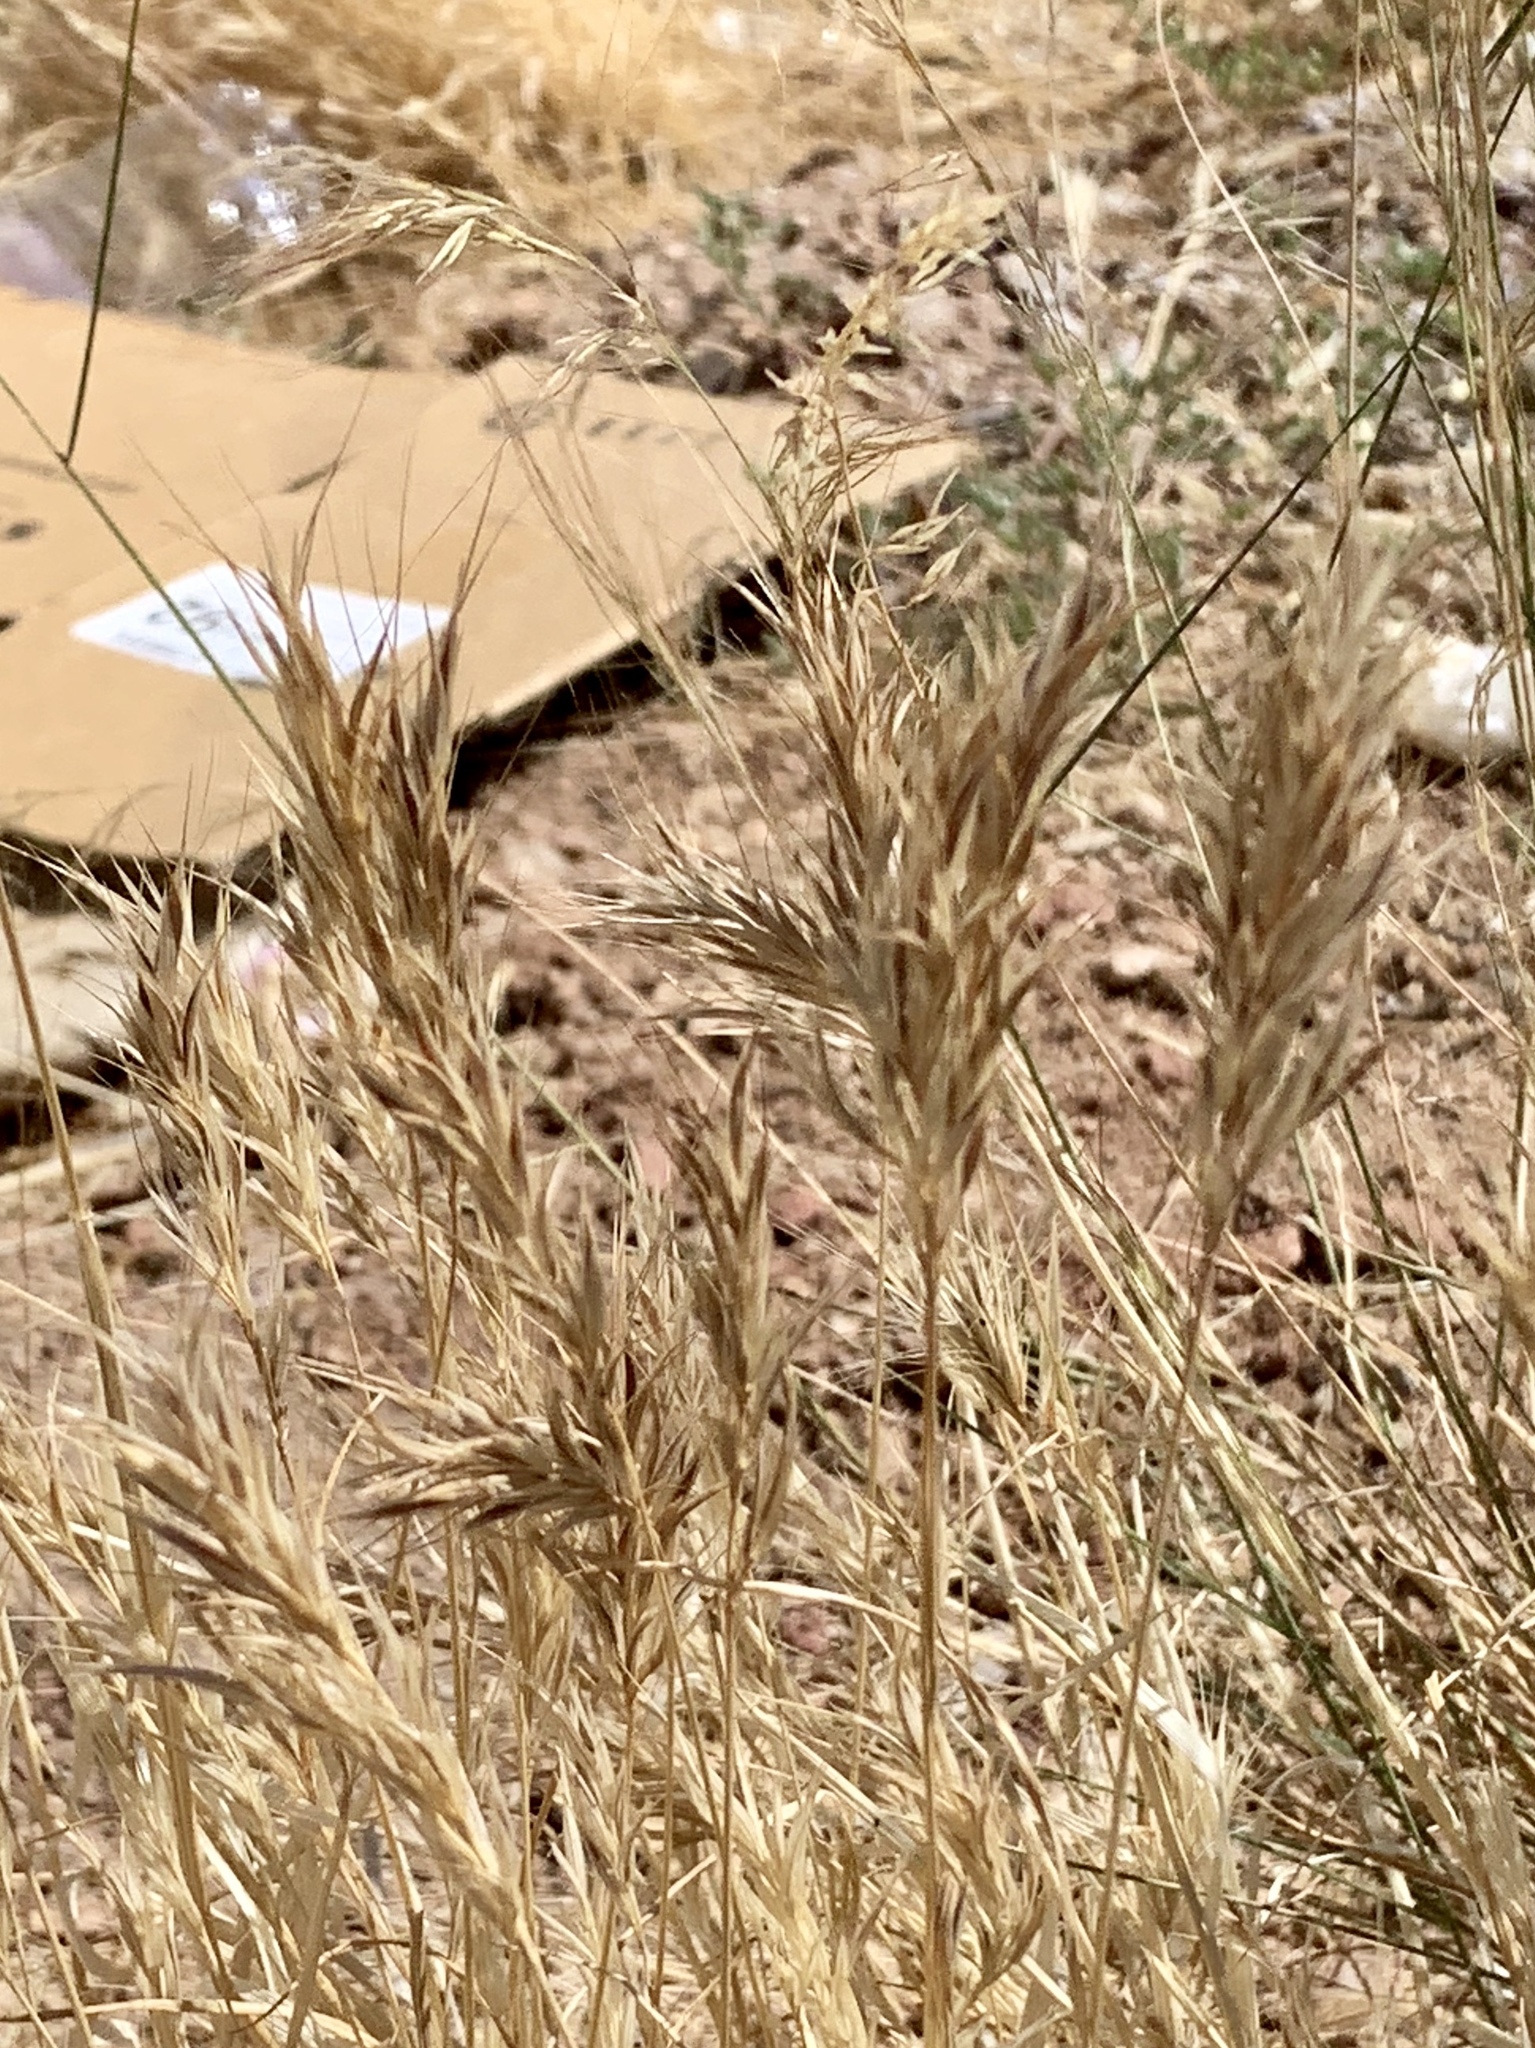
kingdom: Plantae
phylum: Tracheophyta
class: Liliopsida
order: Poales
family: Poaceae
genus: Bromus
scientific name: Bromus rubens
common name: Red brome
